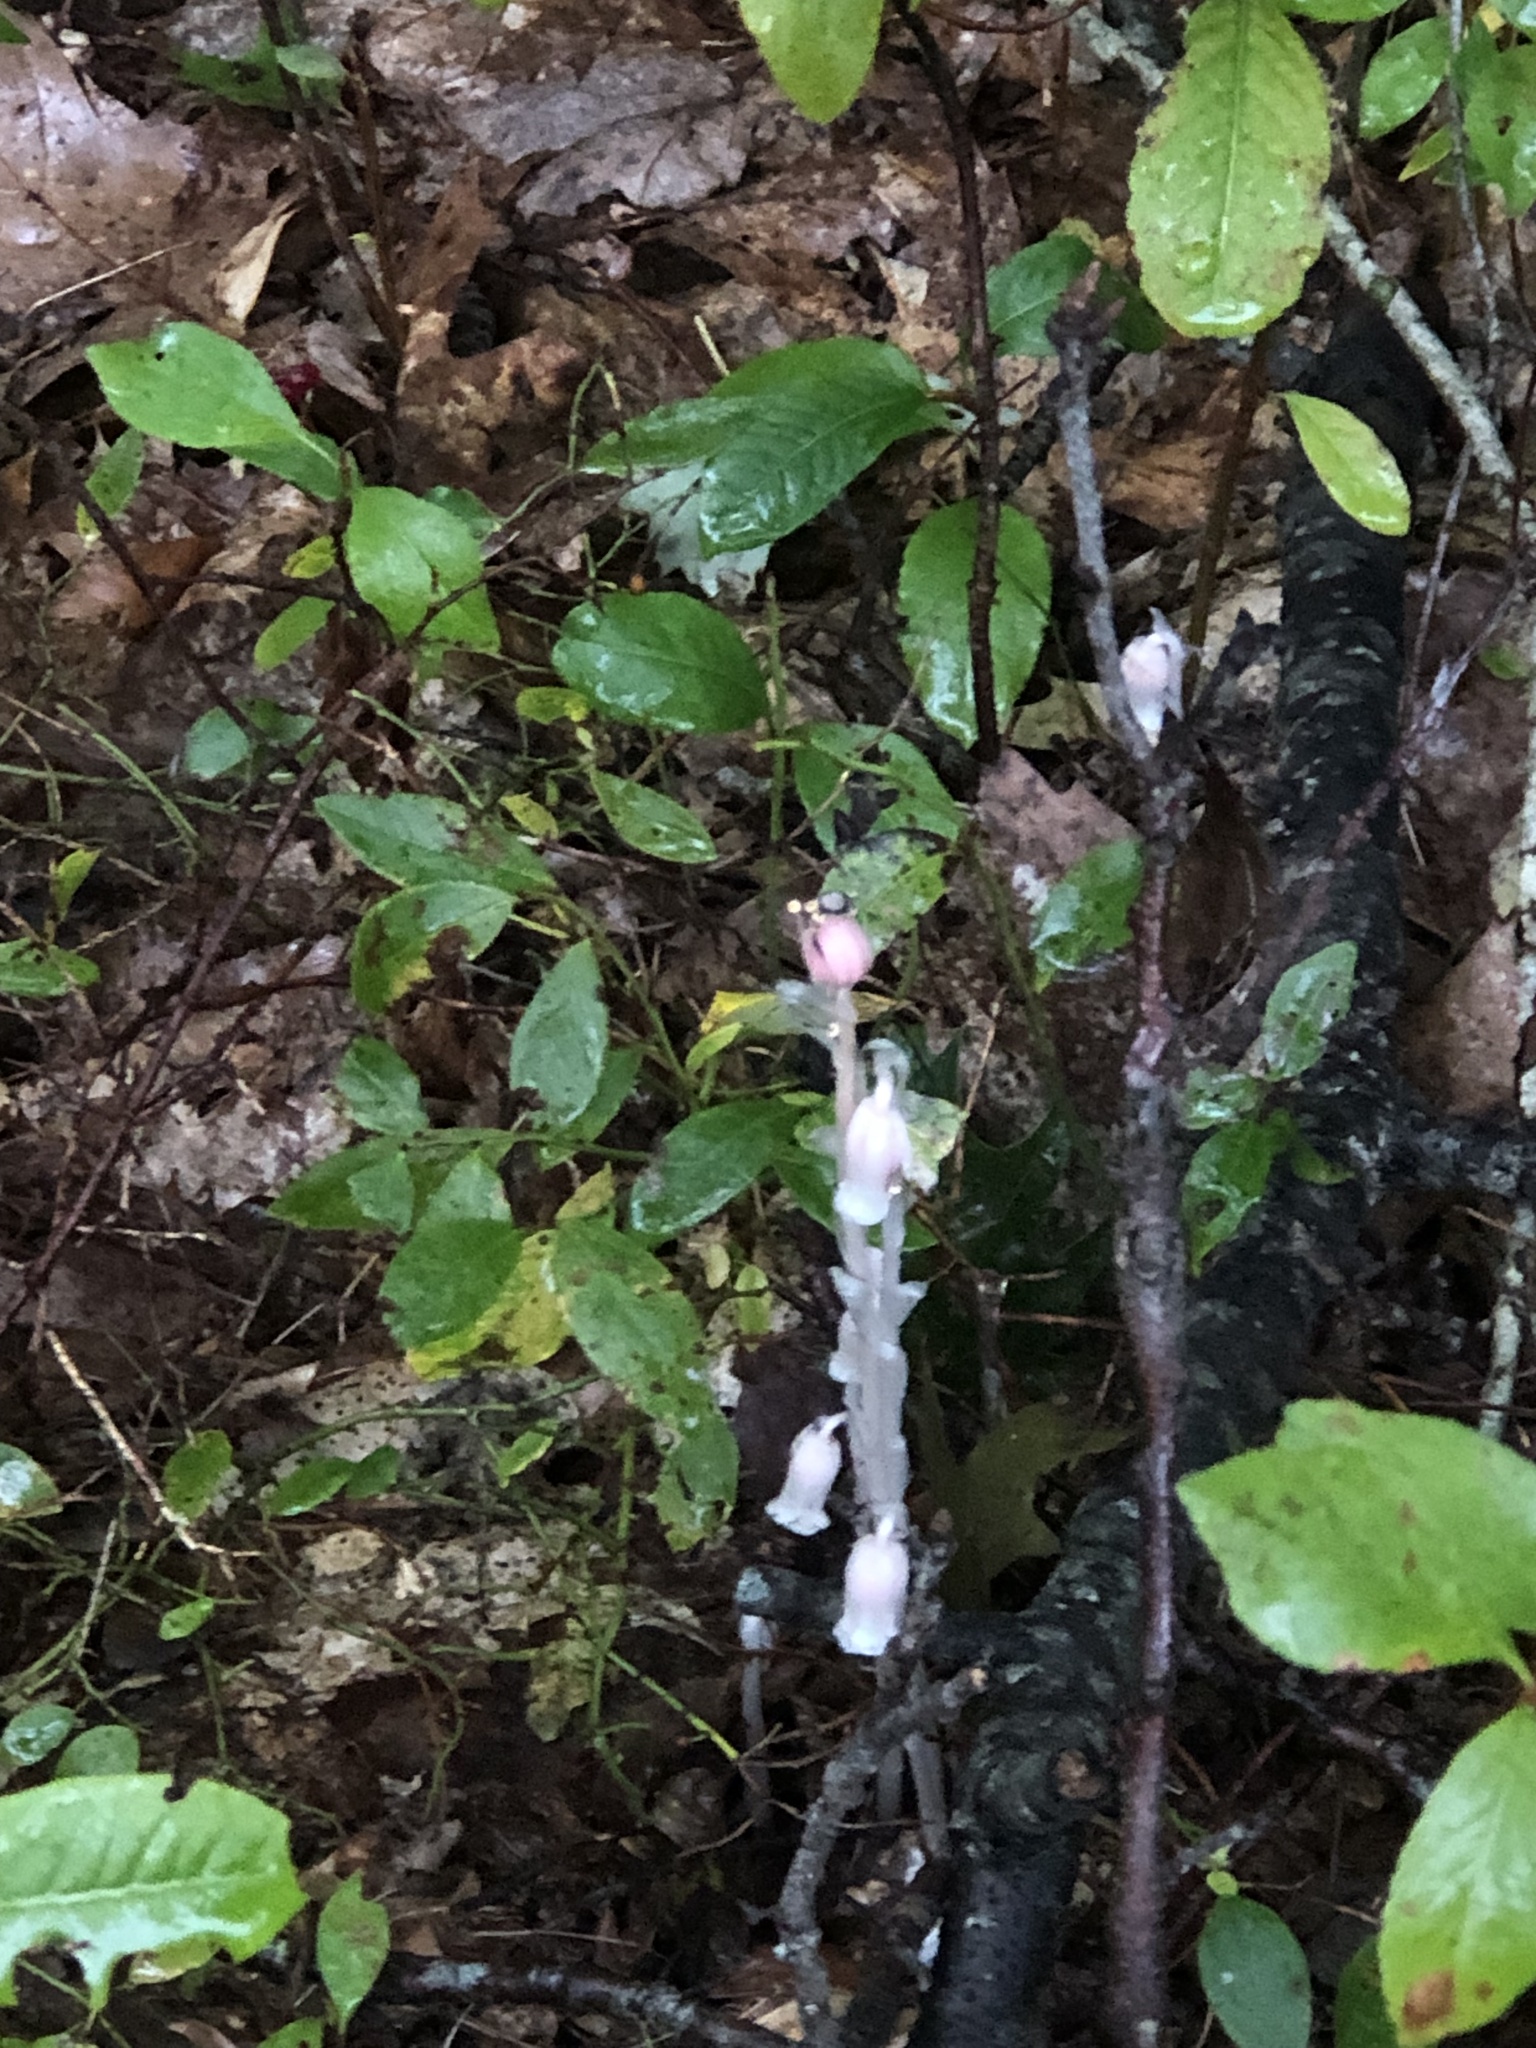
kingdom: Plantae
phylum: Tracheophyta
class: Magnoliopsida
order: Ericales
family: Ericaceae
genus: Monotropa
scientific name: Monotropa uniflora
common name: Convulsion root
